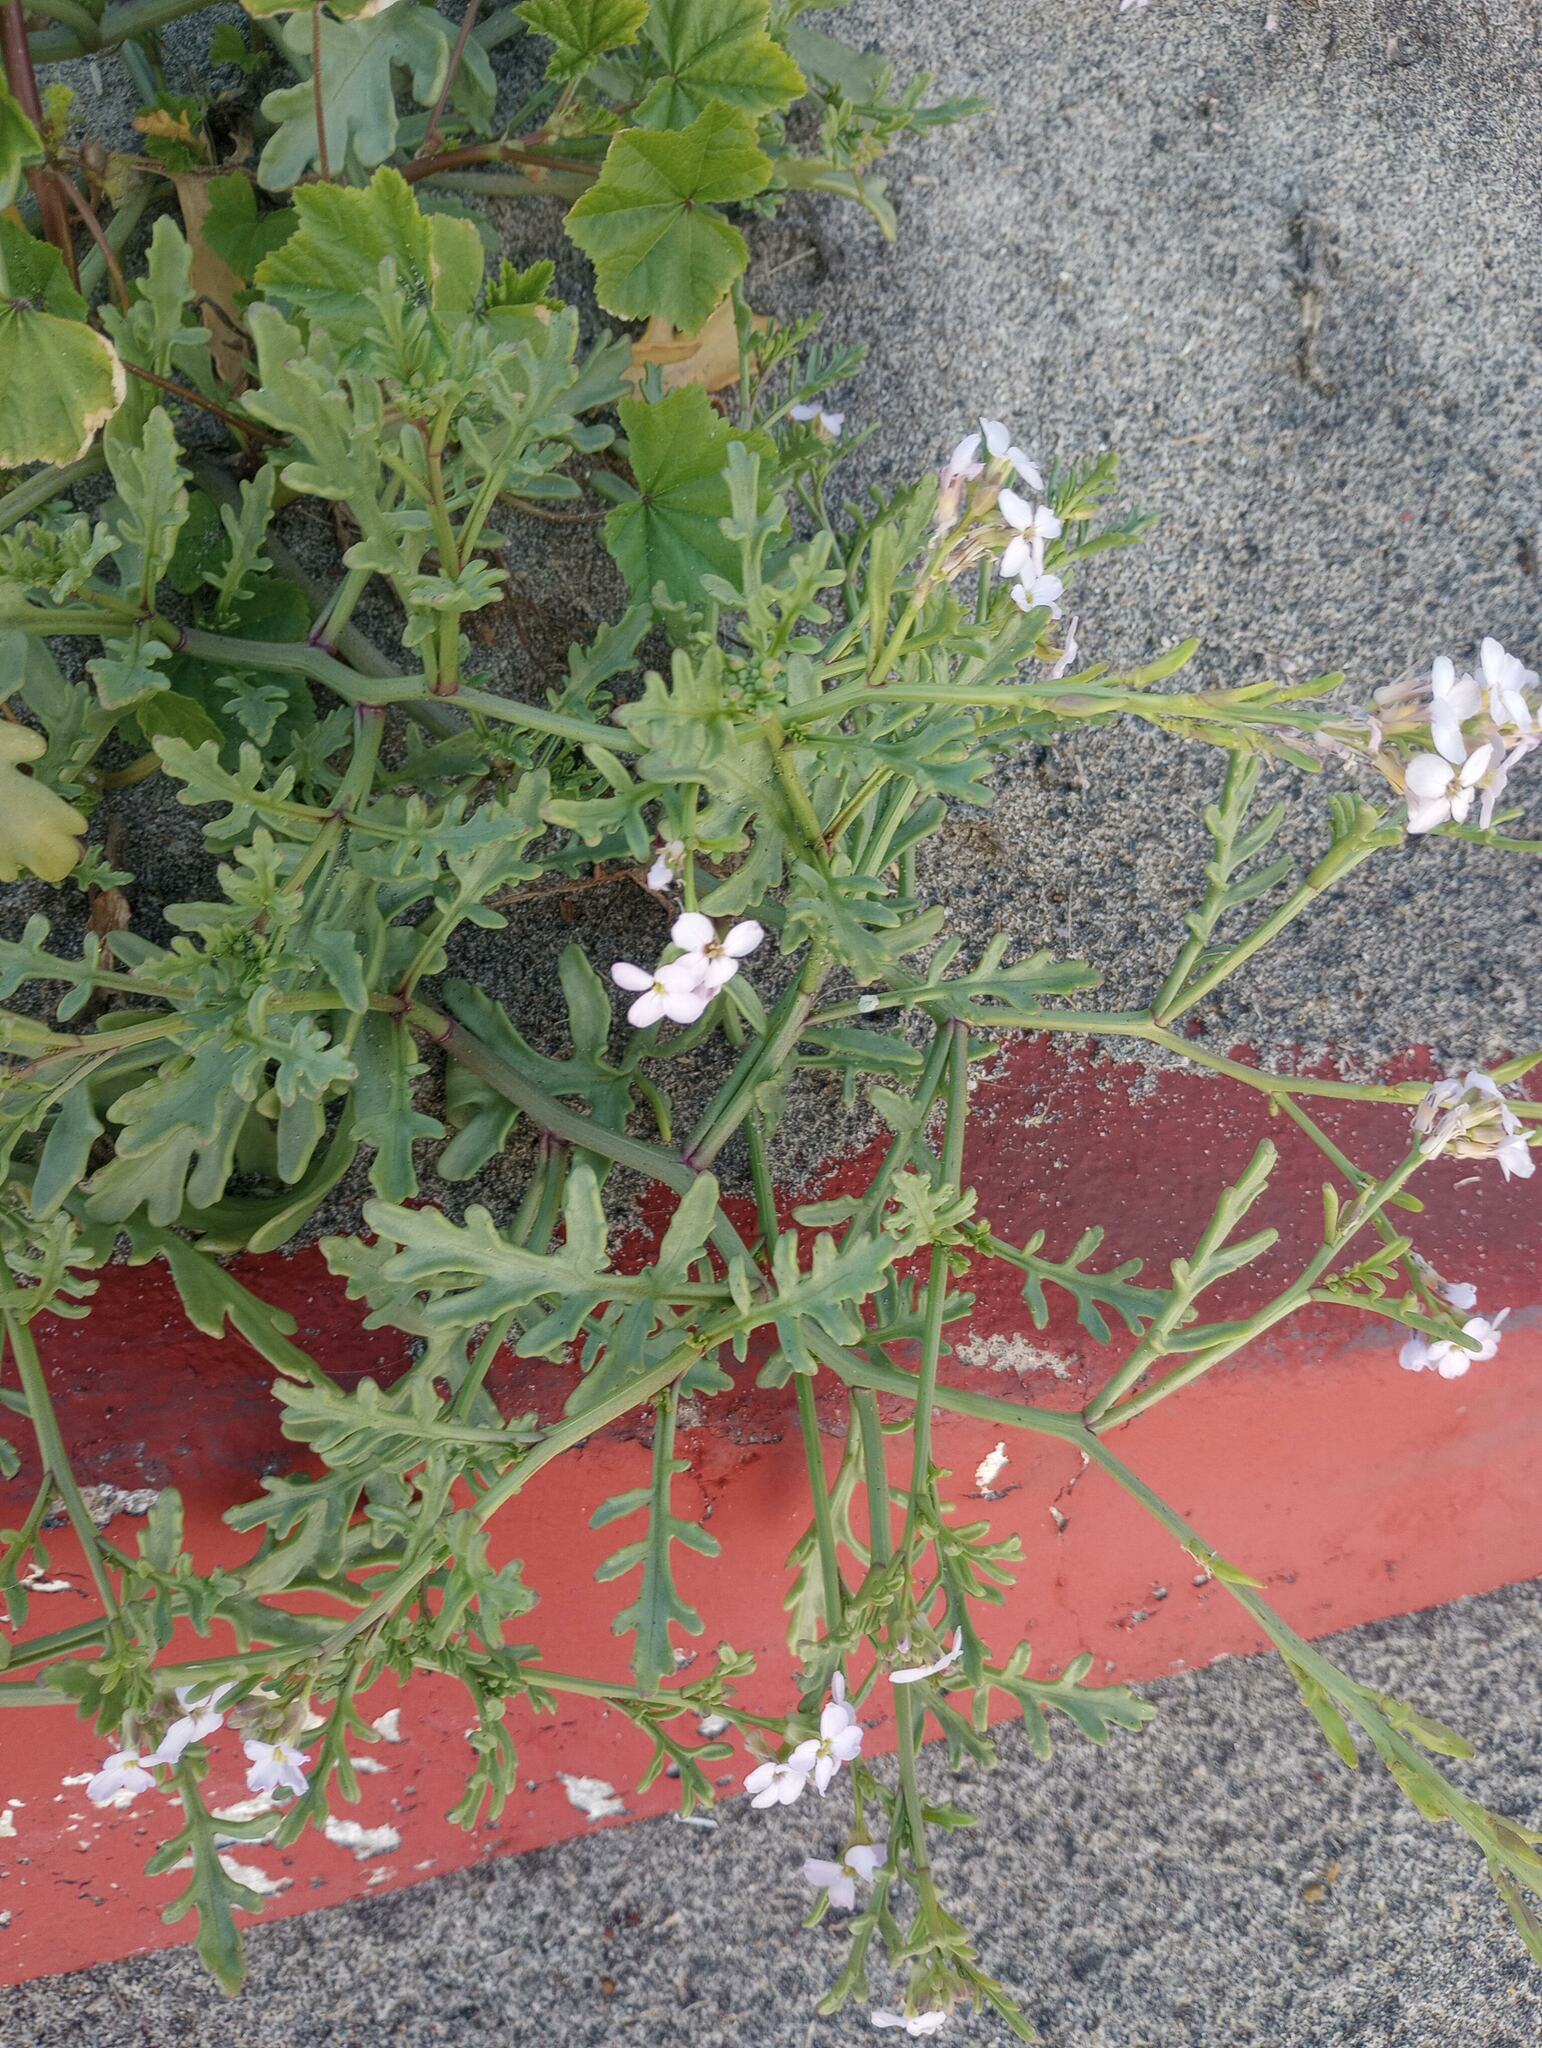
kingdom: Plantae
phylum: Tracheophyta
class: Magnoliopsida
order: Brassicales
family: Brassicaceae
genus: Cakile
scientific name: Cakile maritima
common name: Sea rocket
